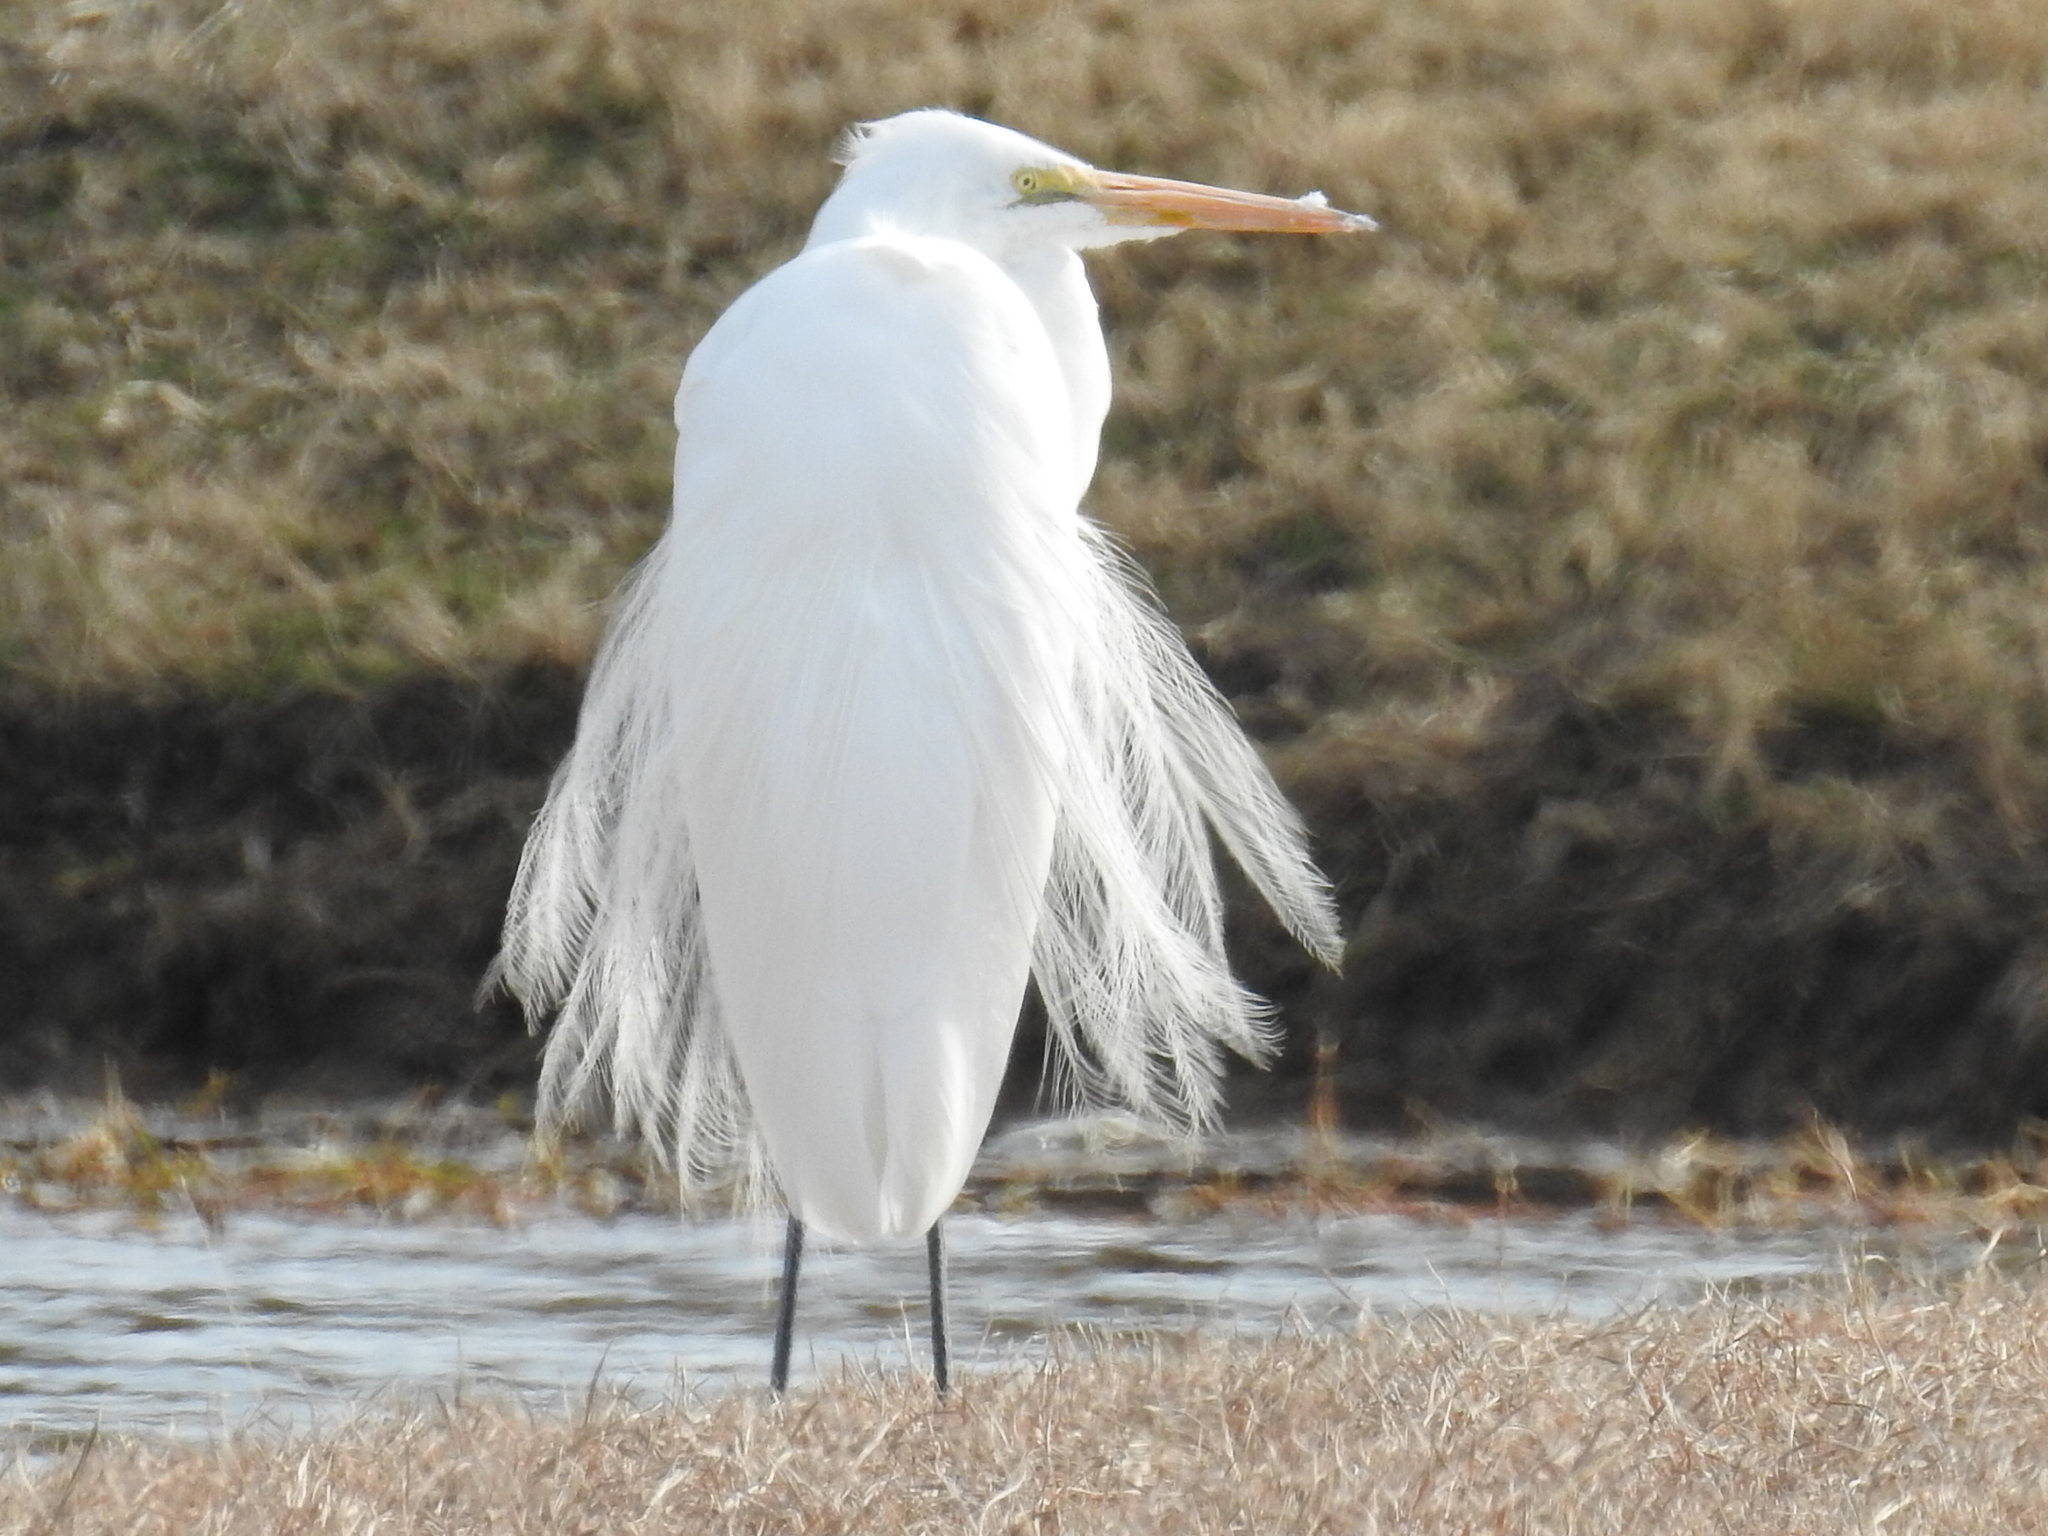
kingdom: Animalia
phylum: Chordata
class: Aves
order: Pelecaniformes
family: Ardeidae
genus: Ardea
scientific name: Ardea alba
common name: Great egret
